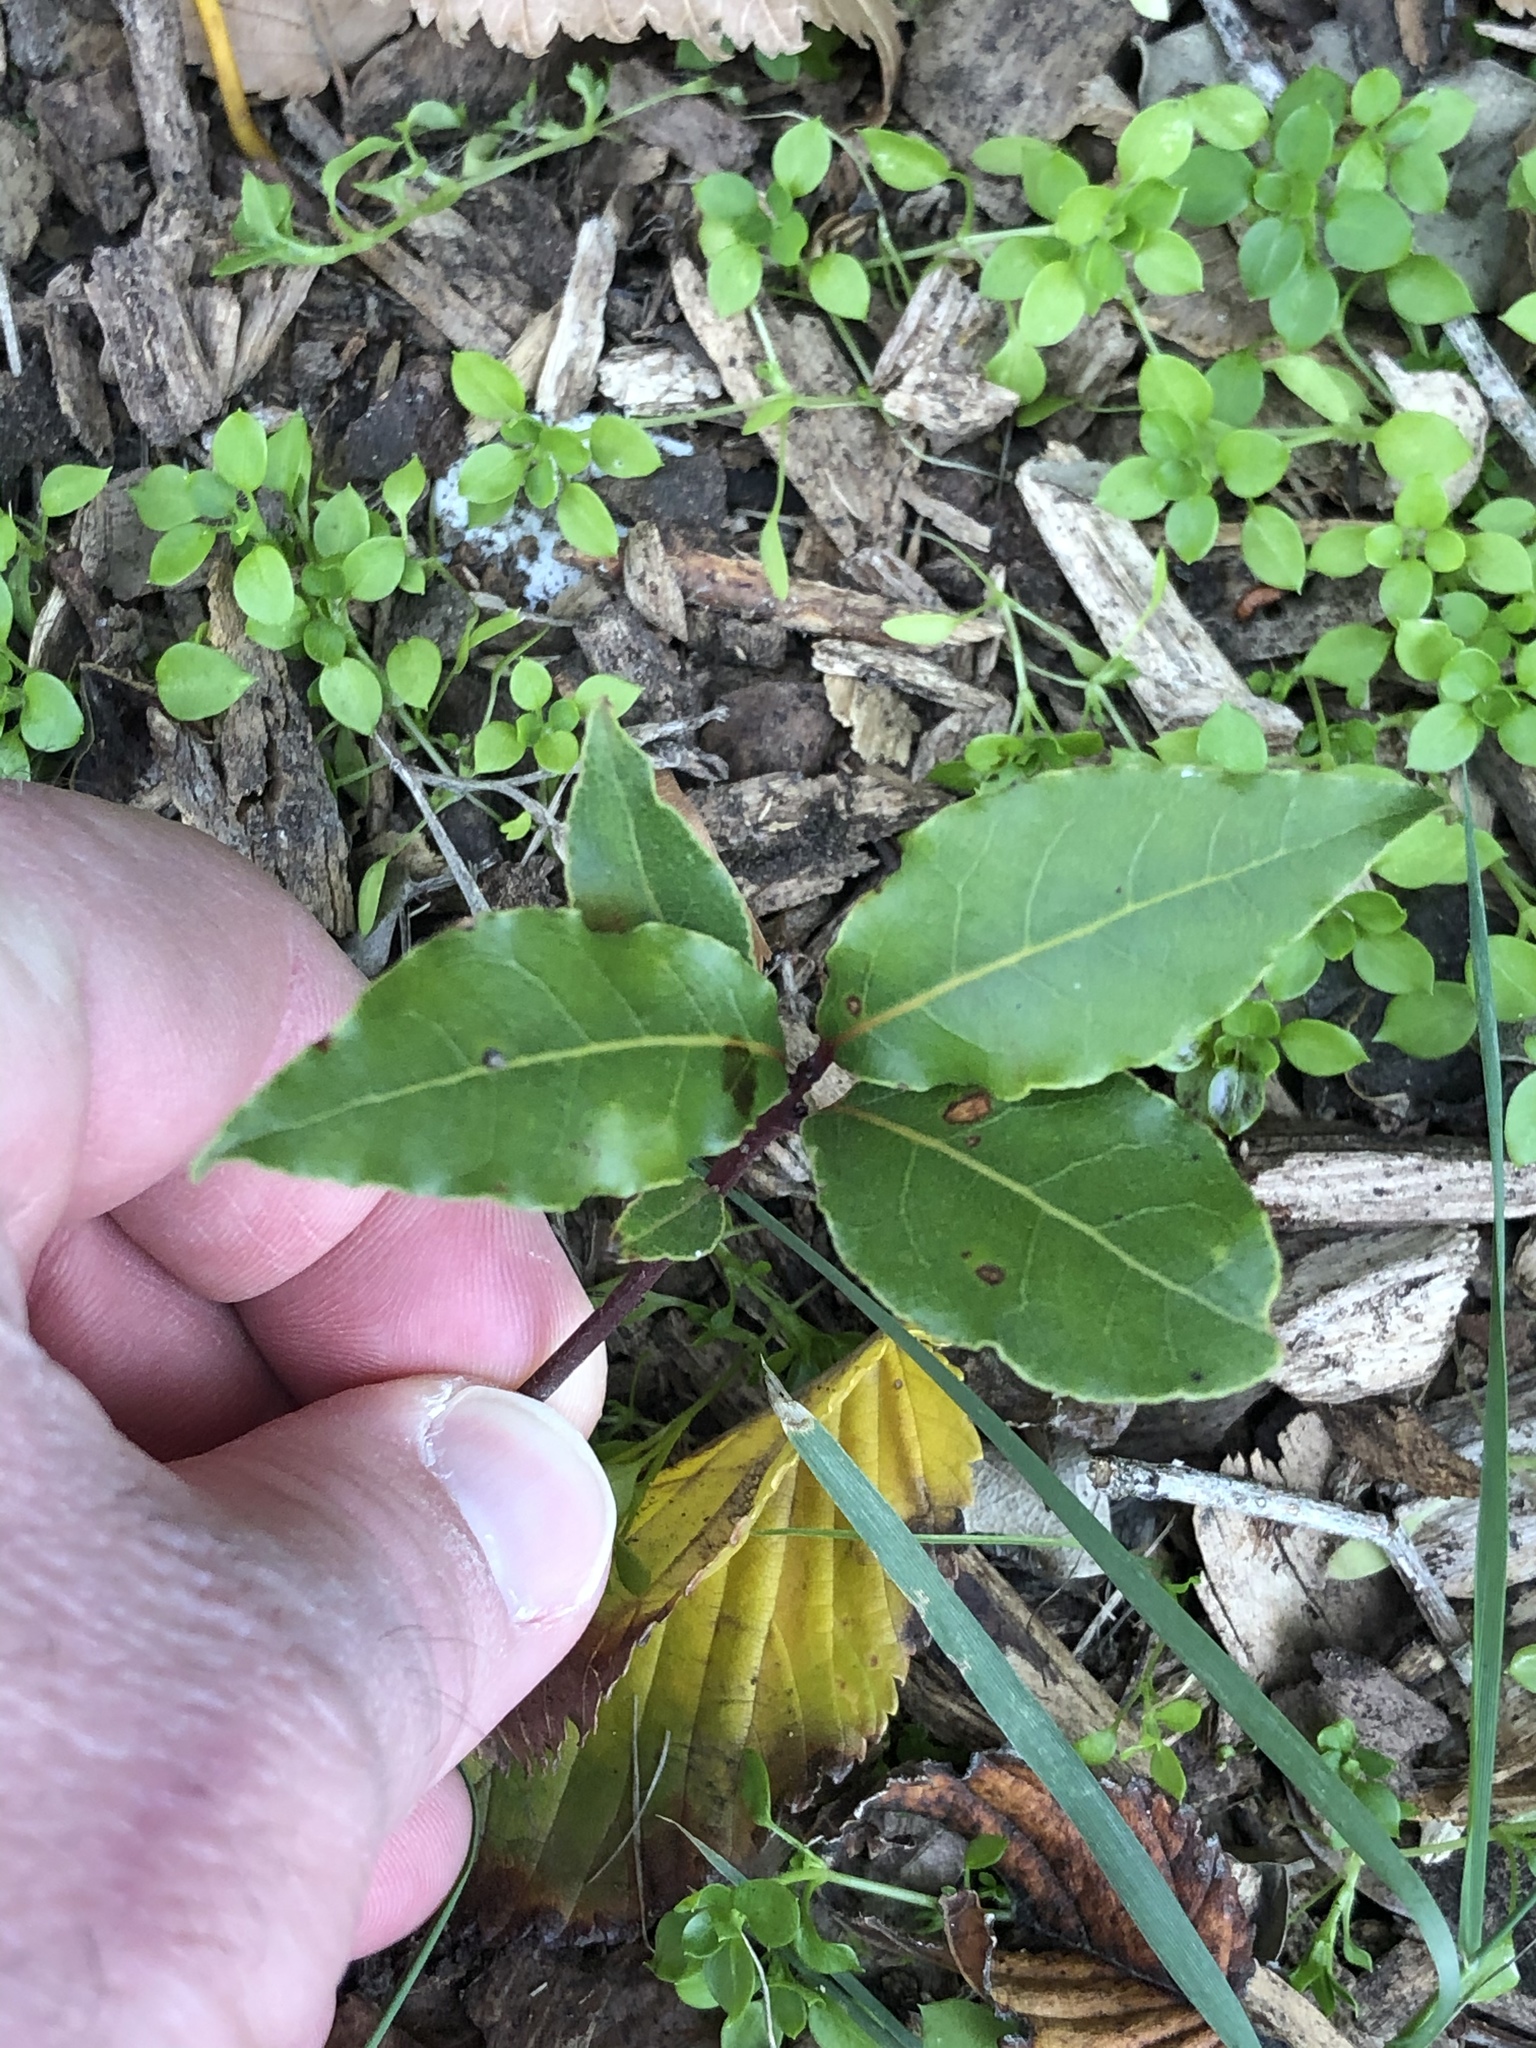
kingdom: Plantae
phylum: Tracheophyta
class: Magnoliopsida
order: Laurales
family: Lauraceae
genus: Laurus
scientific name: Laurus nobilis
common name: Bay
